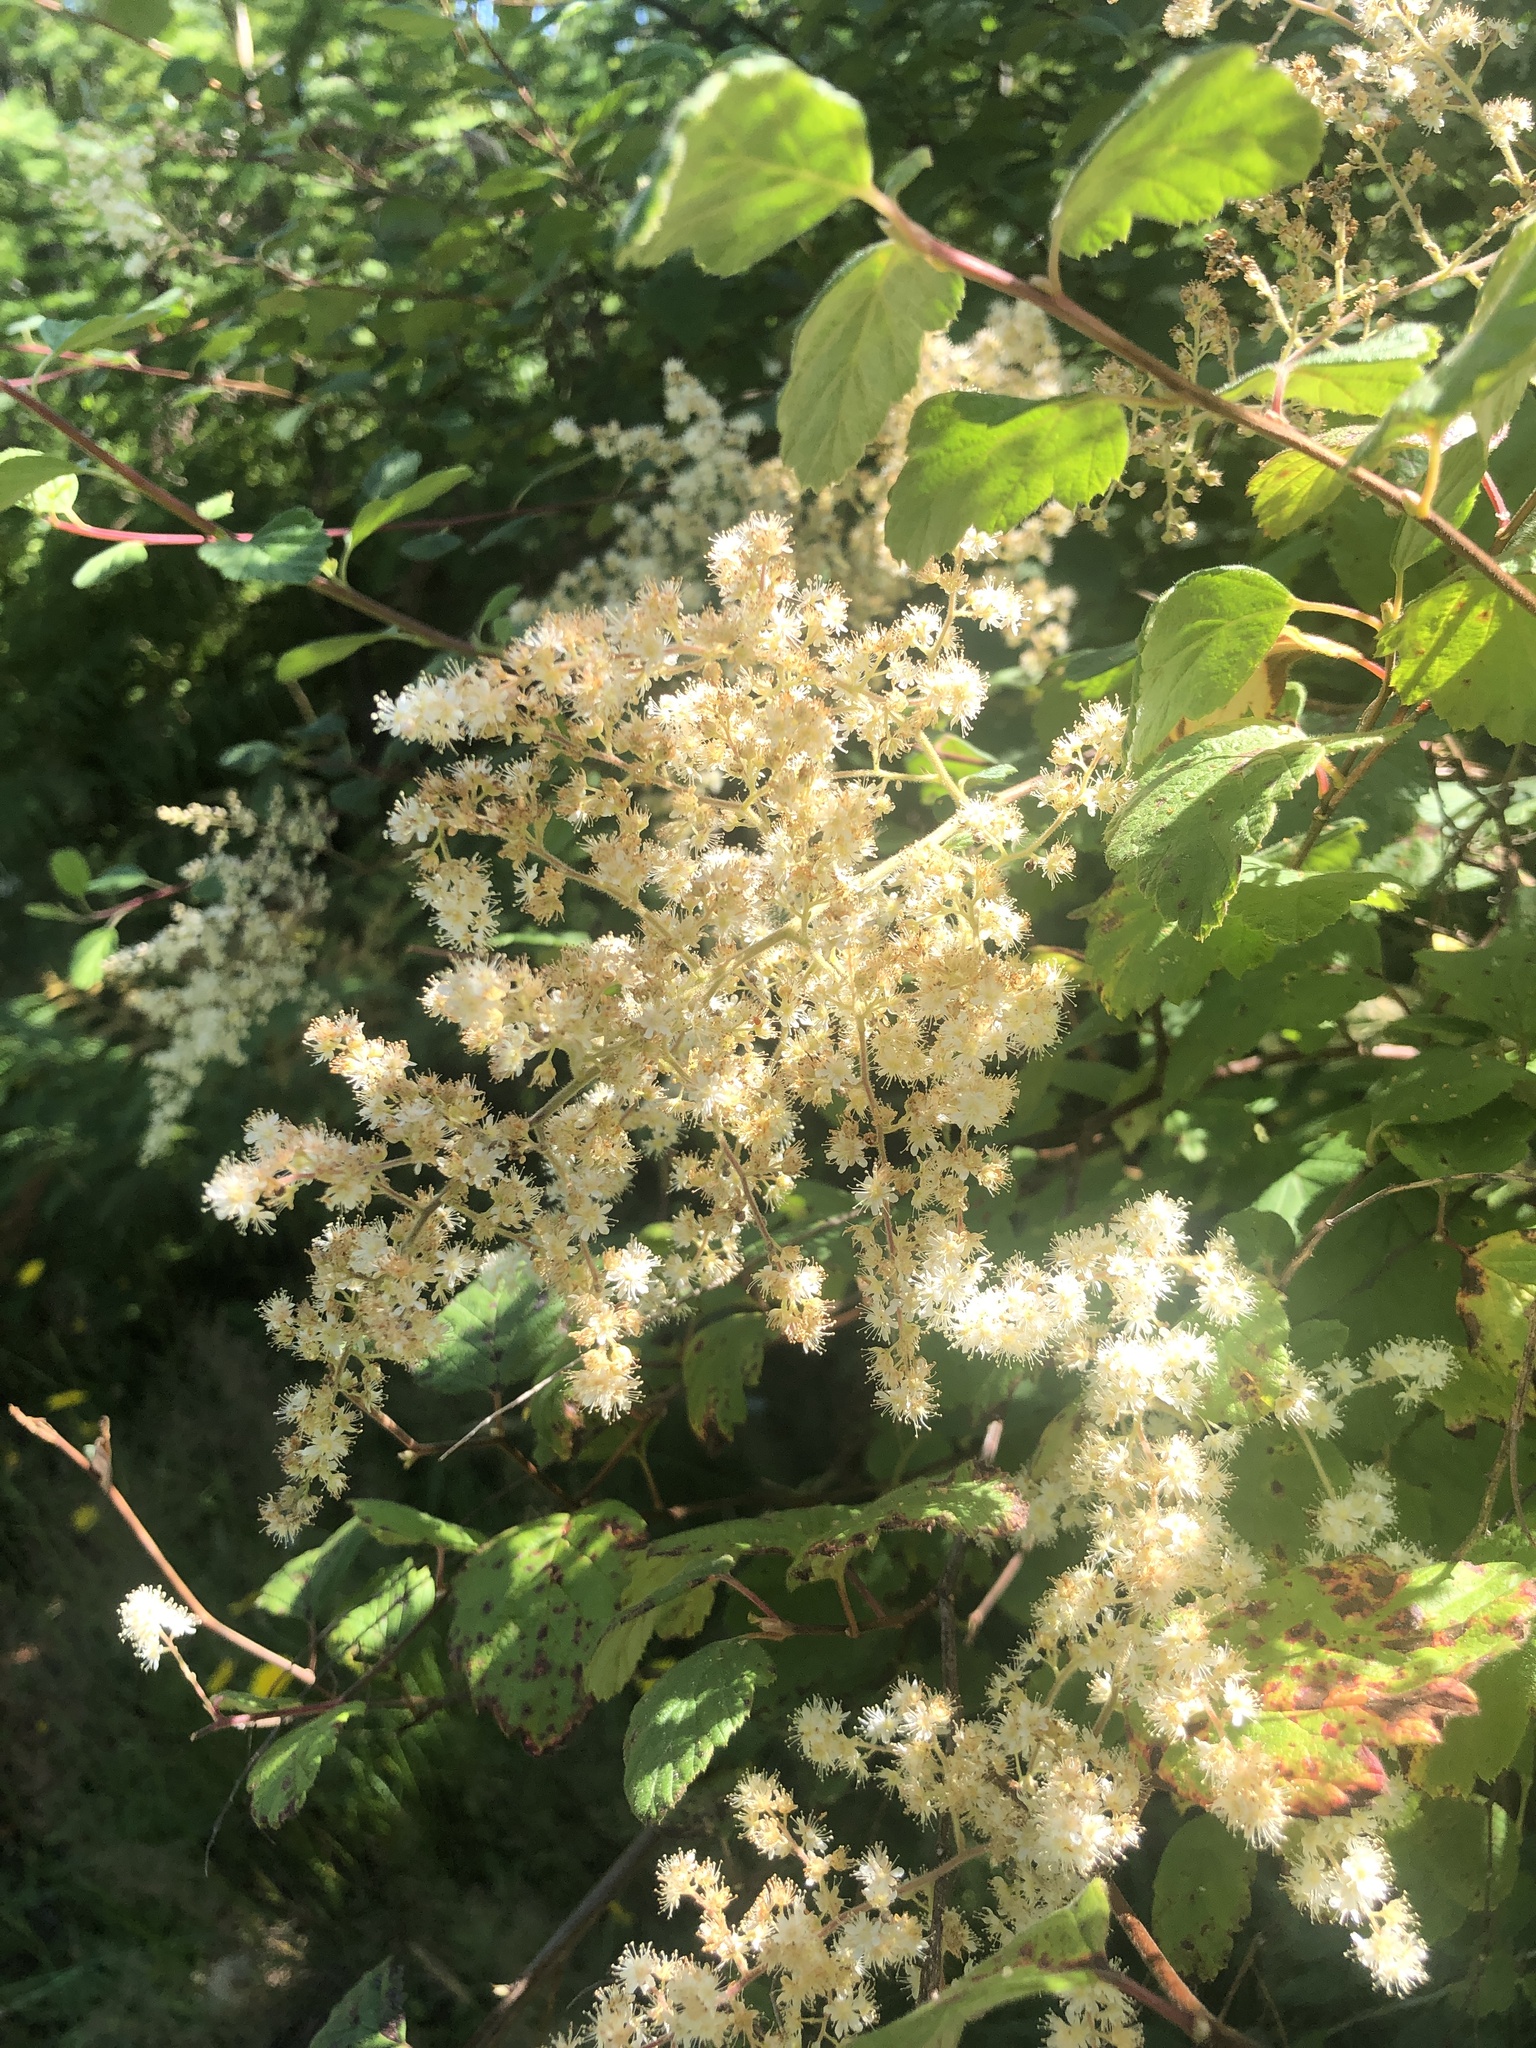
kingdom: Plantae
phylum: Tracheophyta
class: Magnoliopsida
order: Rosales
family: Rosaceae
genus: Holodiscus
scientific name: Holodiscus discolor
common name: Oceanspray
